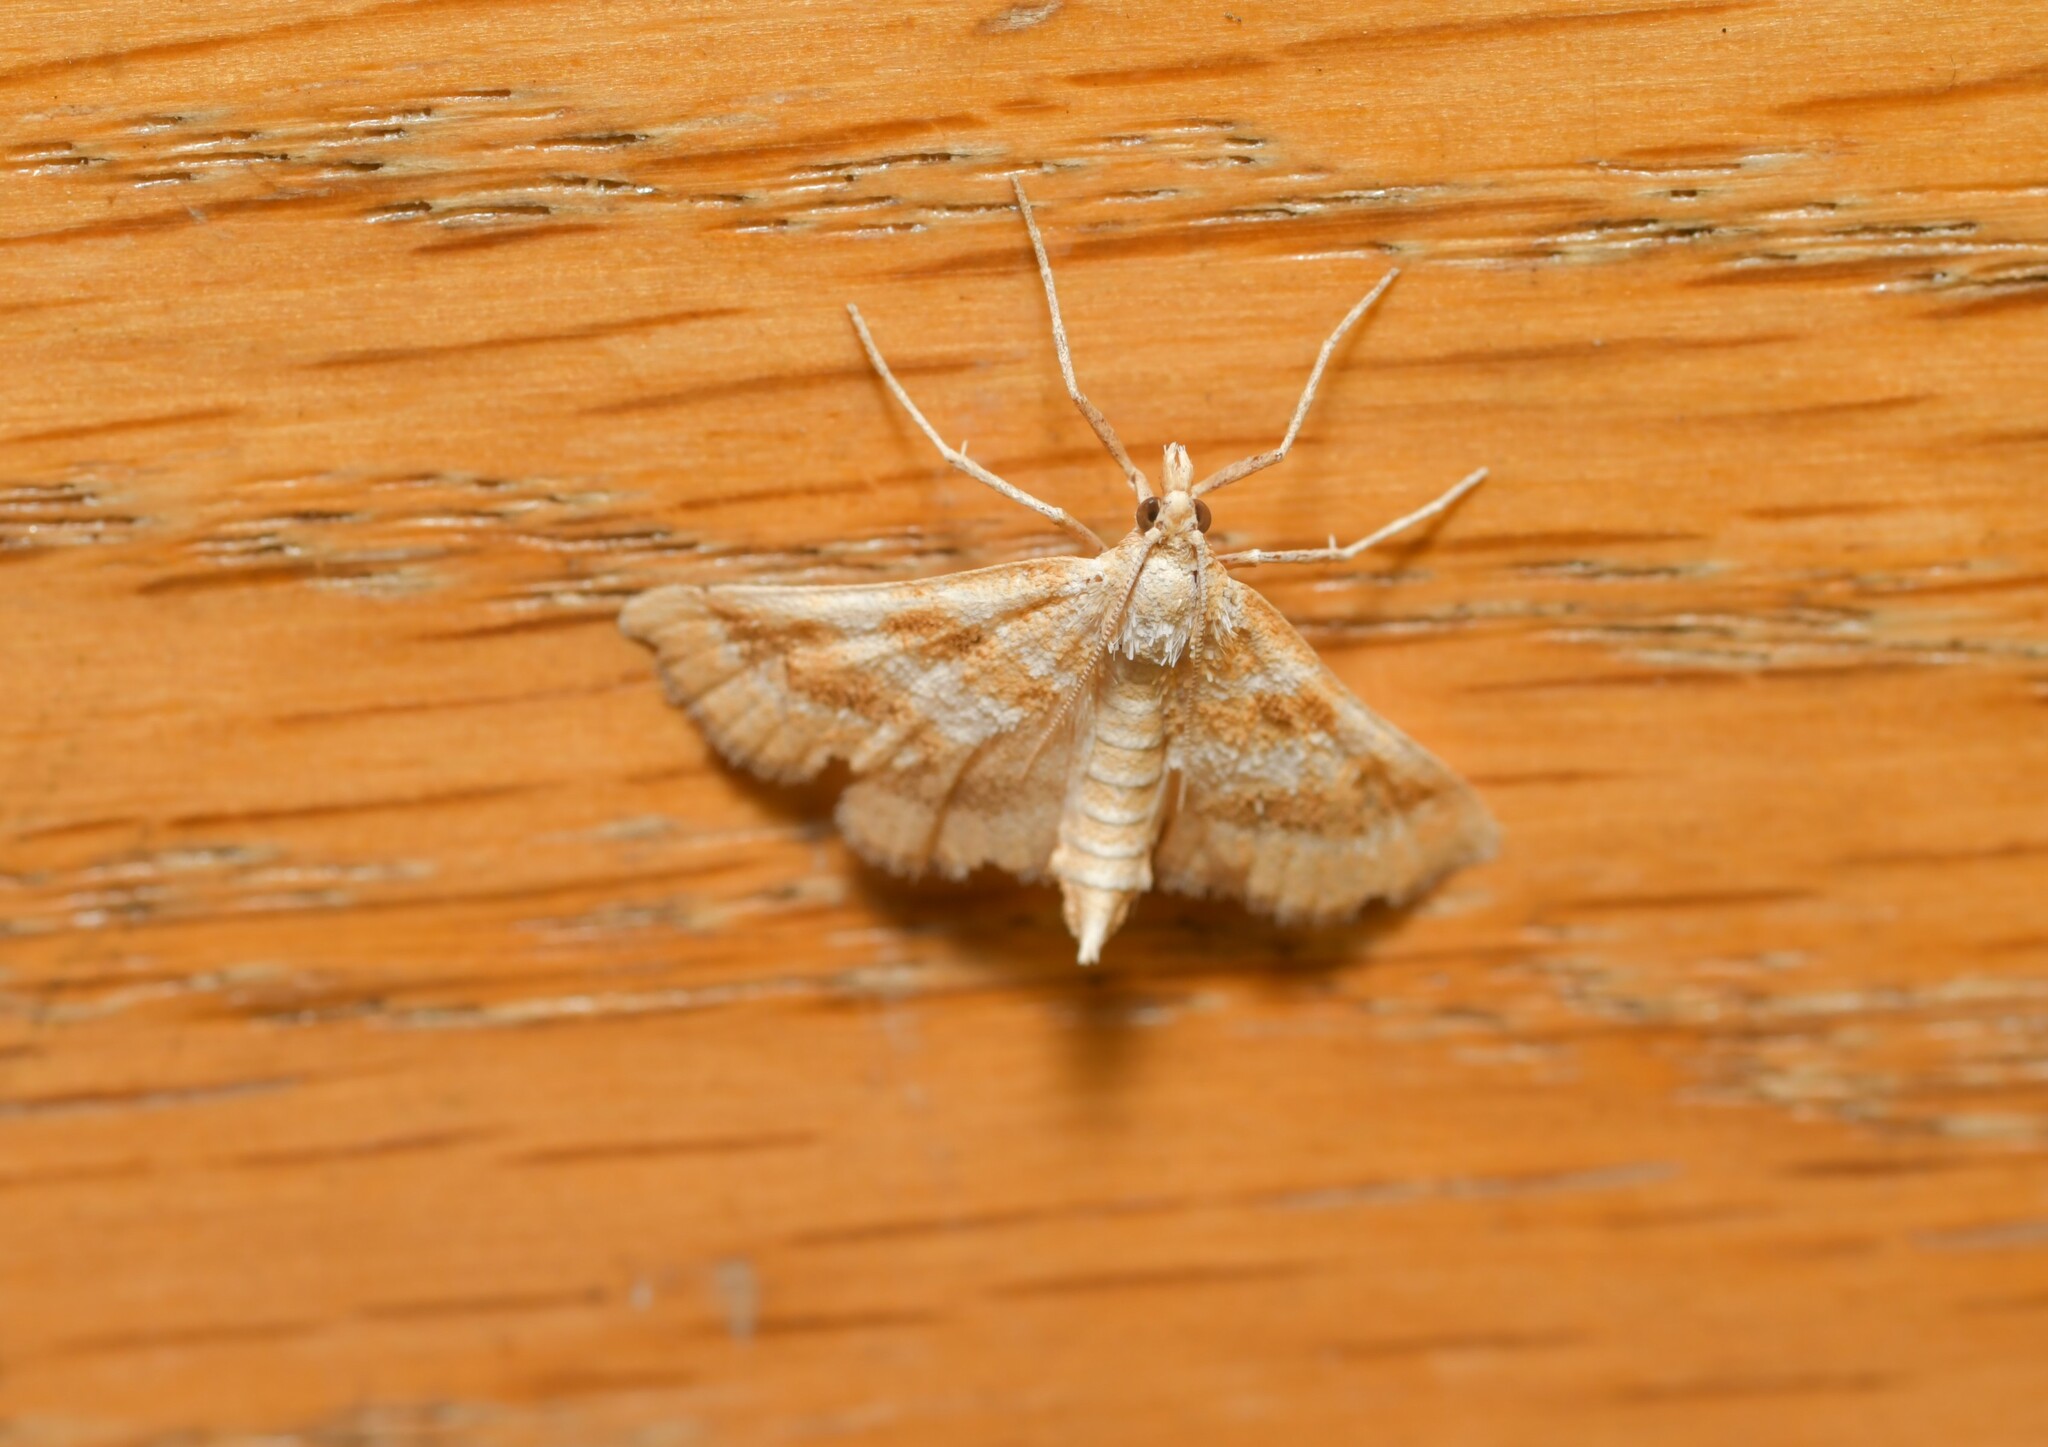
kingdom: Animalia
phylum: Arthropoda
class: Insecta
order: Lepidoptera
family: Crambidae
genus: Metasia
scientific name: Metasia suppandalis
